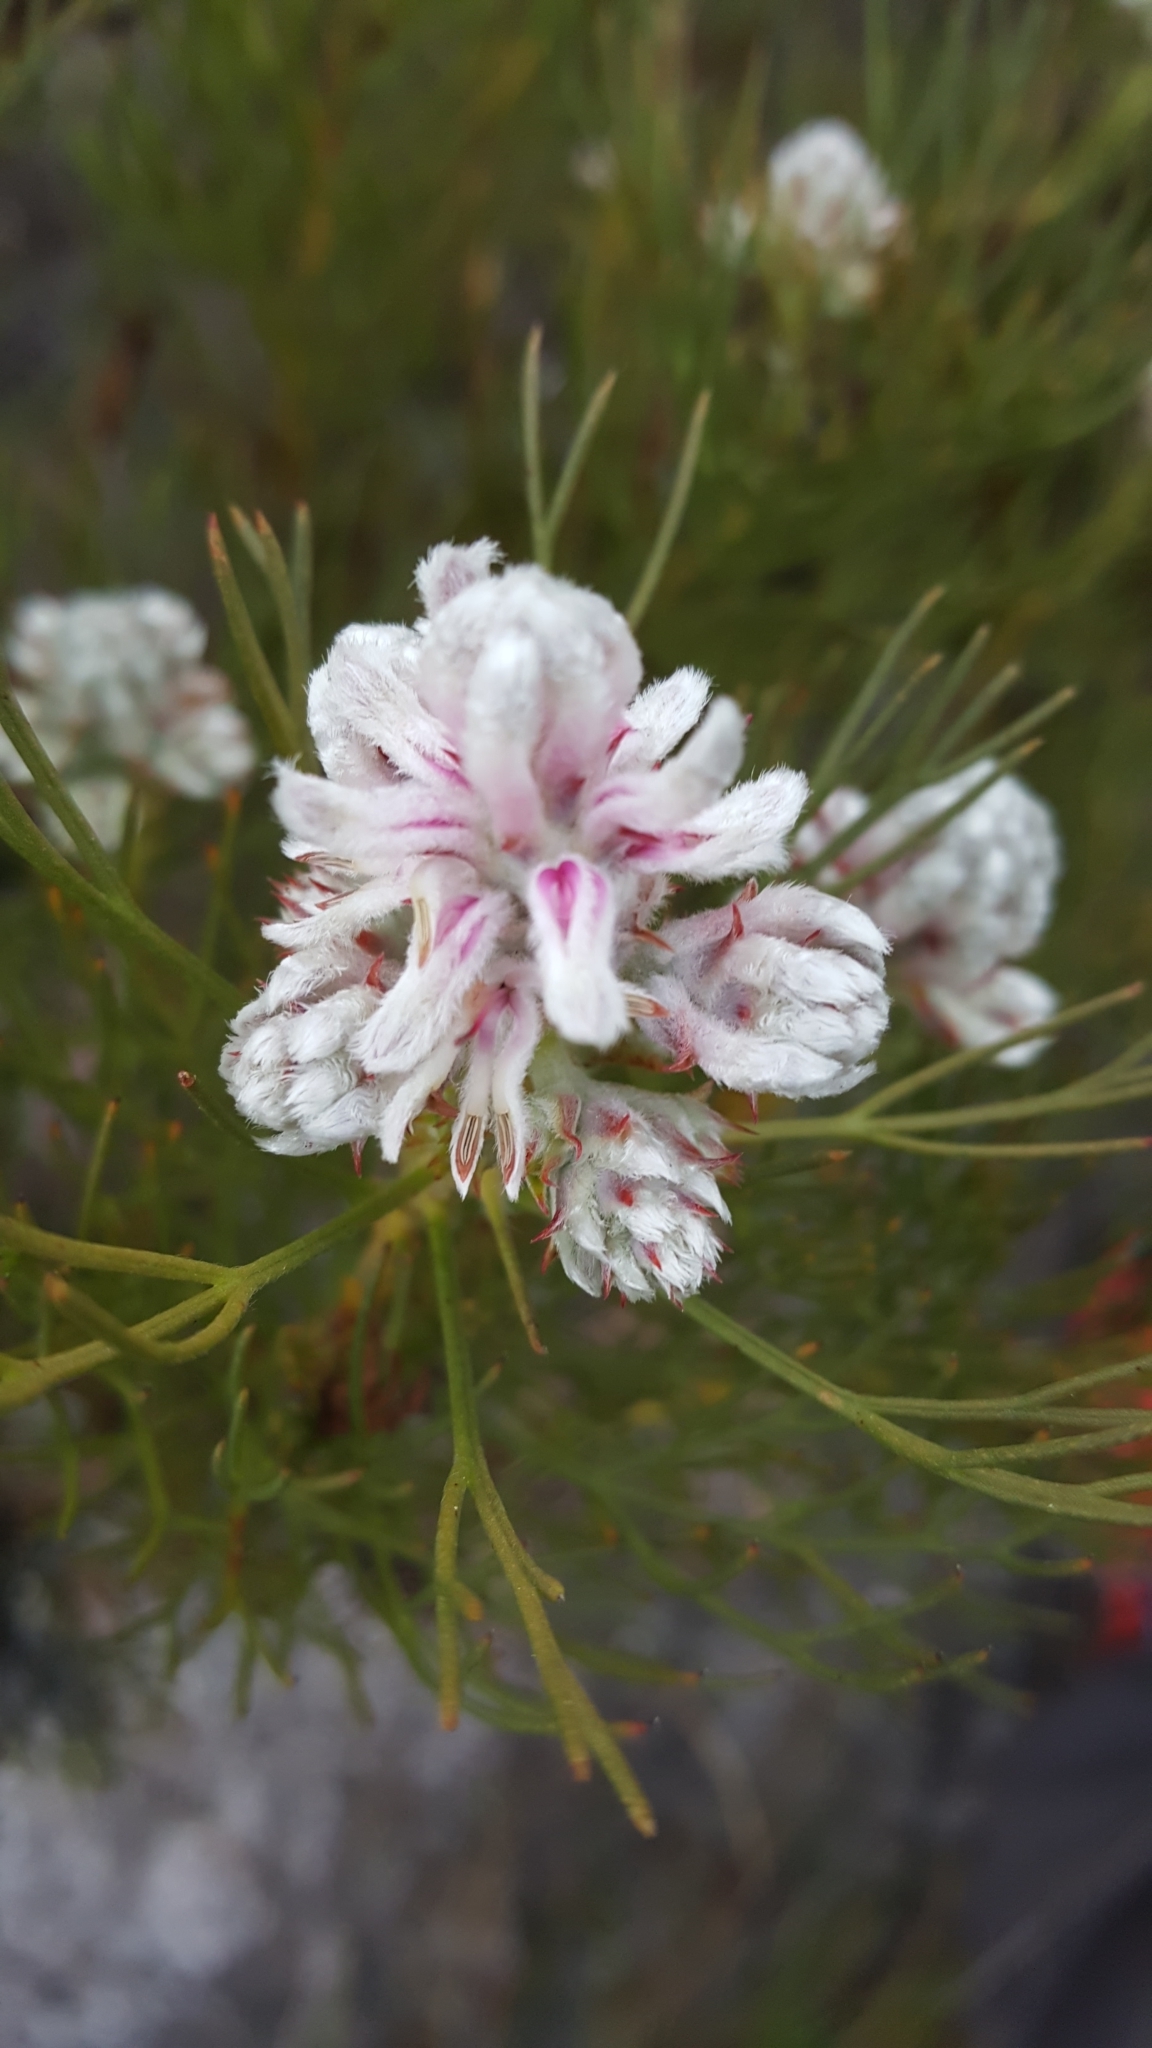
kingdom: Plantae
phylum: Tracheophyta
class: Magnoliopsida
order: Proteales
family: Proteaceae
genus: Serruria
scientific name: Serruria ascendens
